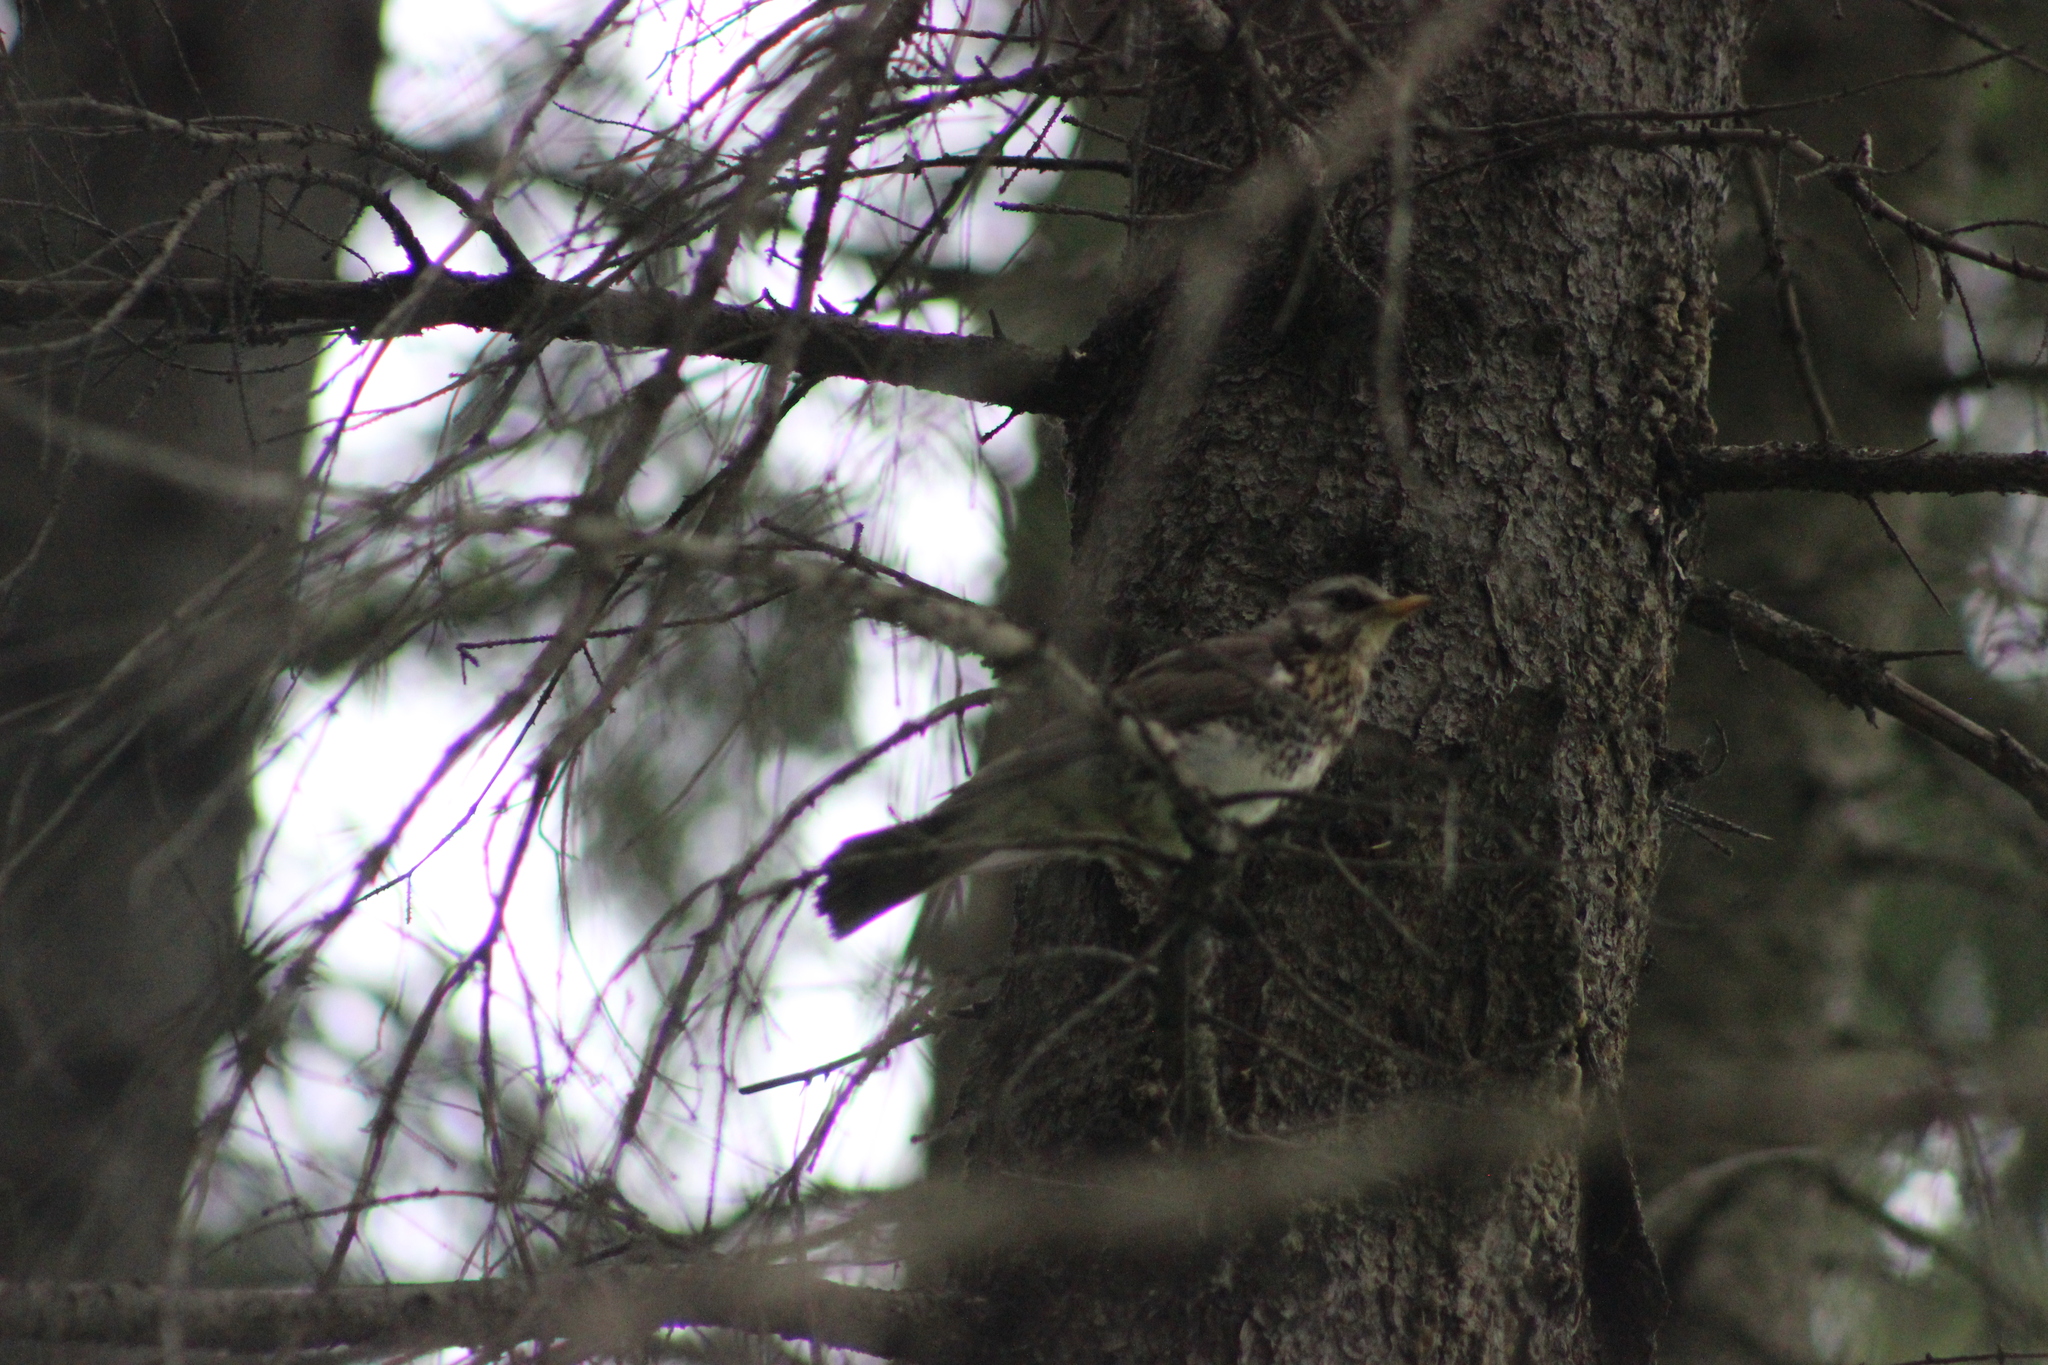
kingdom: Animalia
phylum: Chordata
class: Aves
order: Passeriformes
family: Turdidae
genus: Turdus
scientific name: Turdus pilaris
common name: Fieldfare
